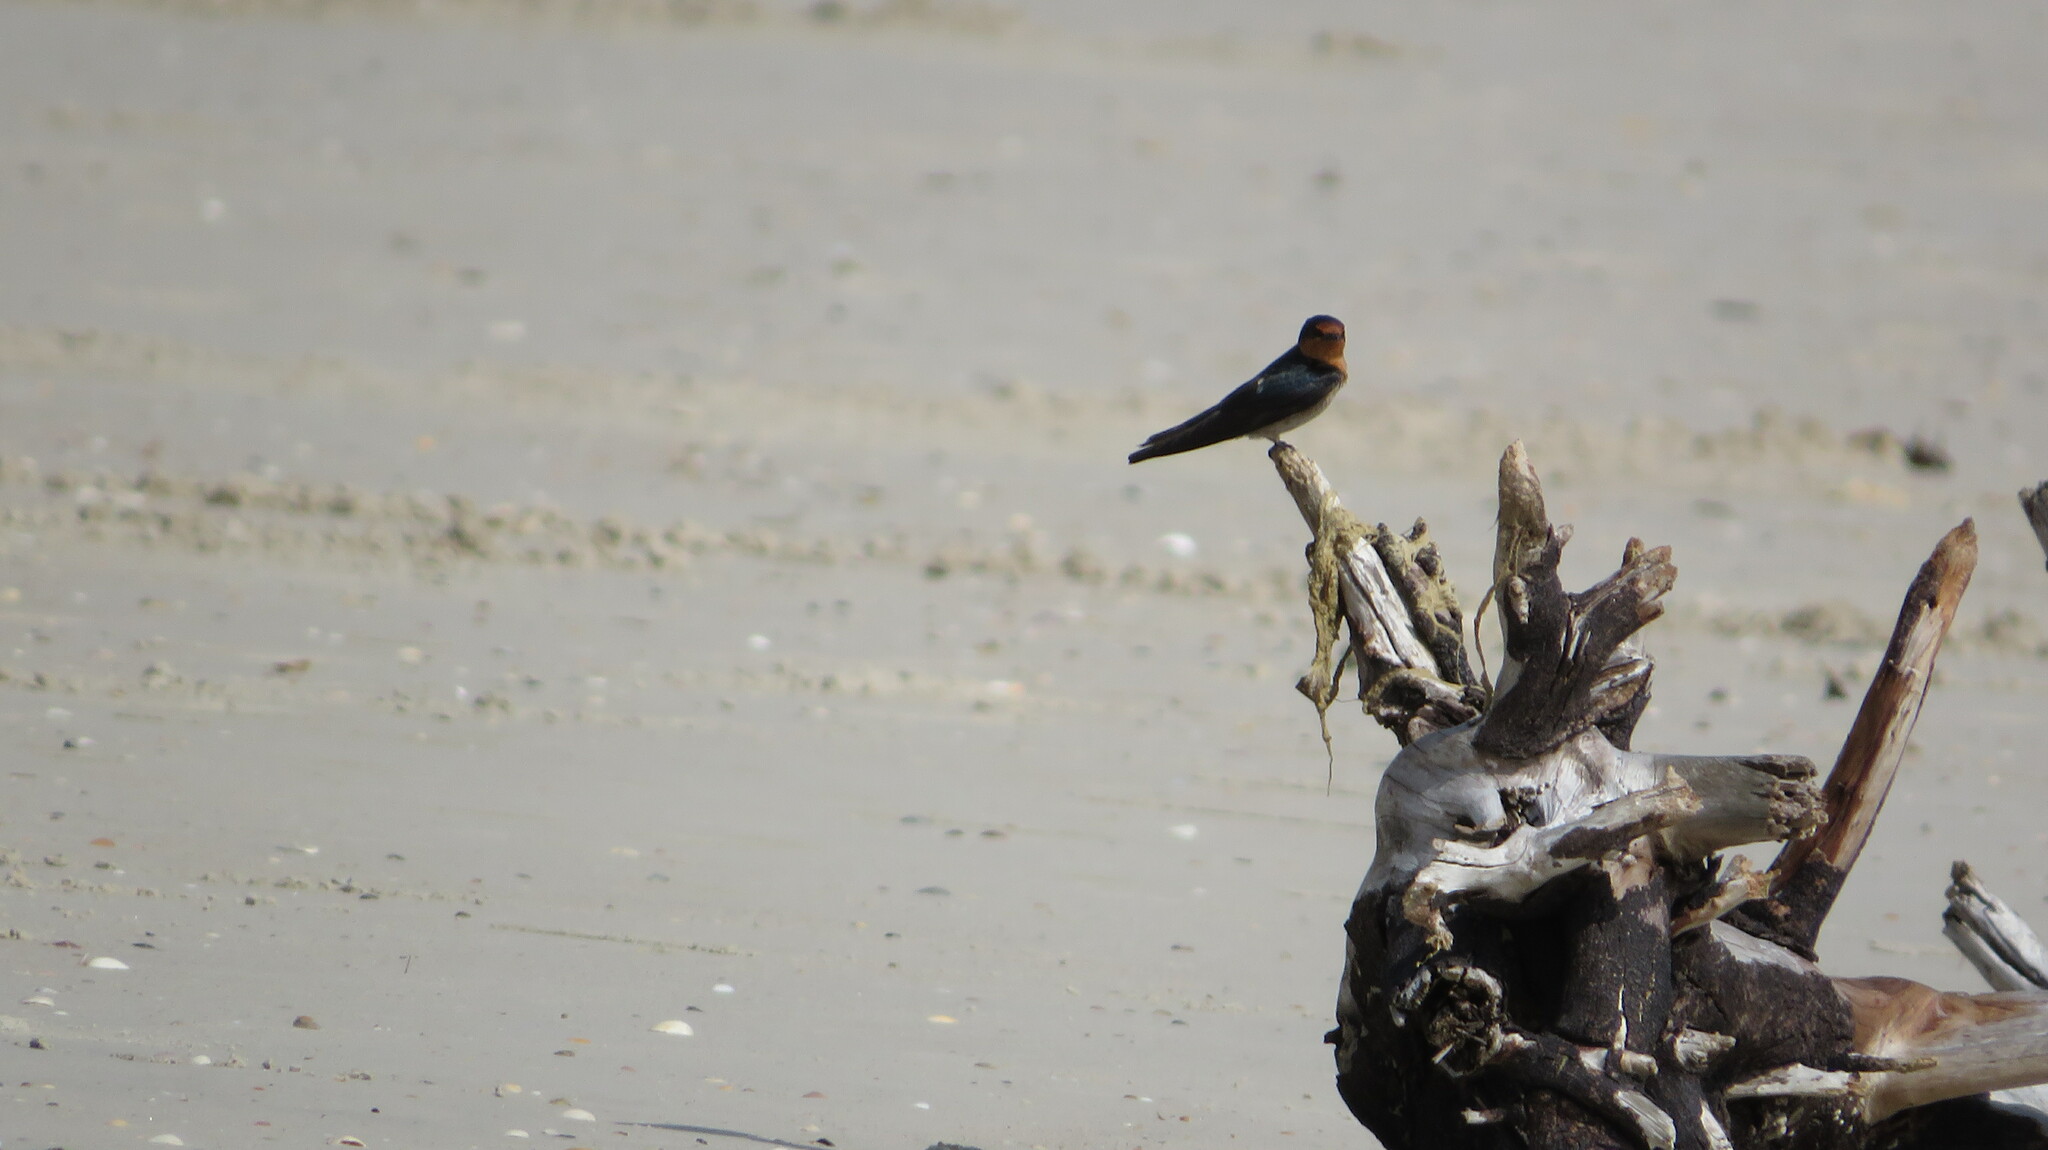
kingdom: Animalia
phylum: Chordata
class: Aves
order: Passeriformes
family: Hirundinidae
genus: Hirundo
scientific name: Hirundo tahitica
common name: Pacific swallow
